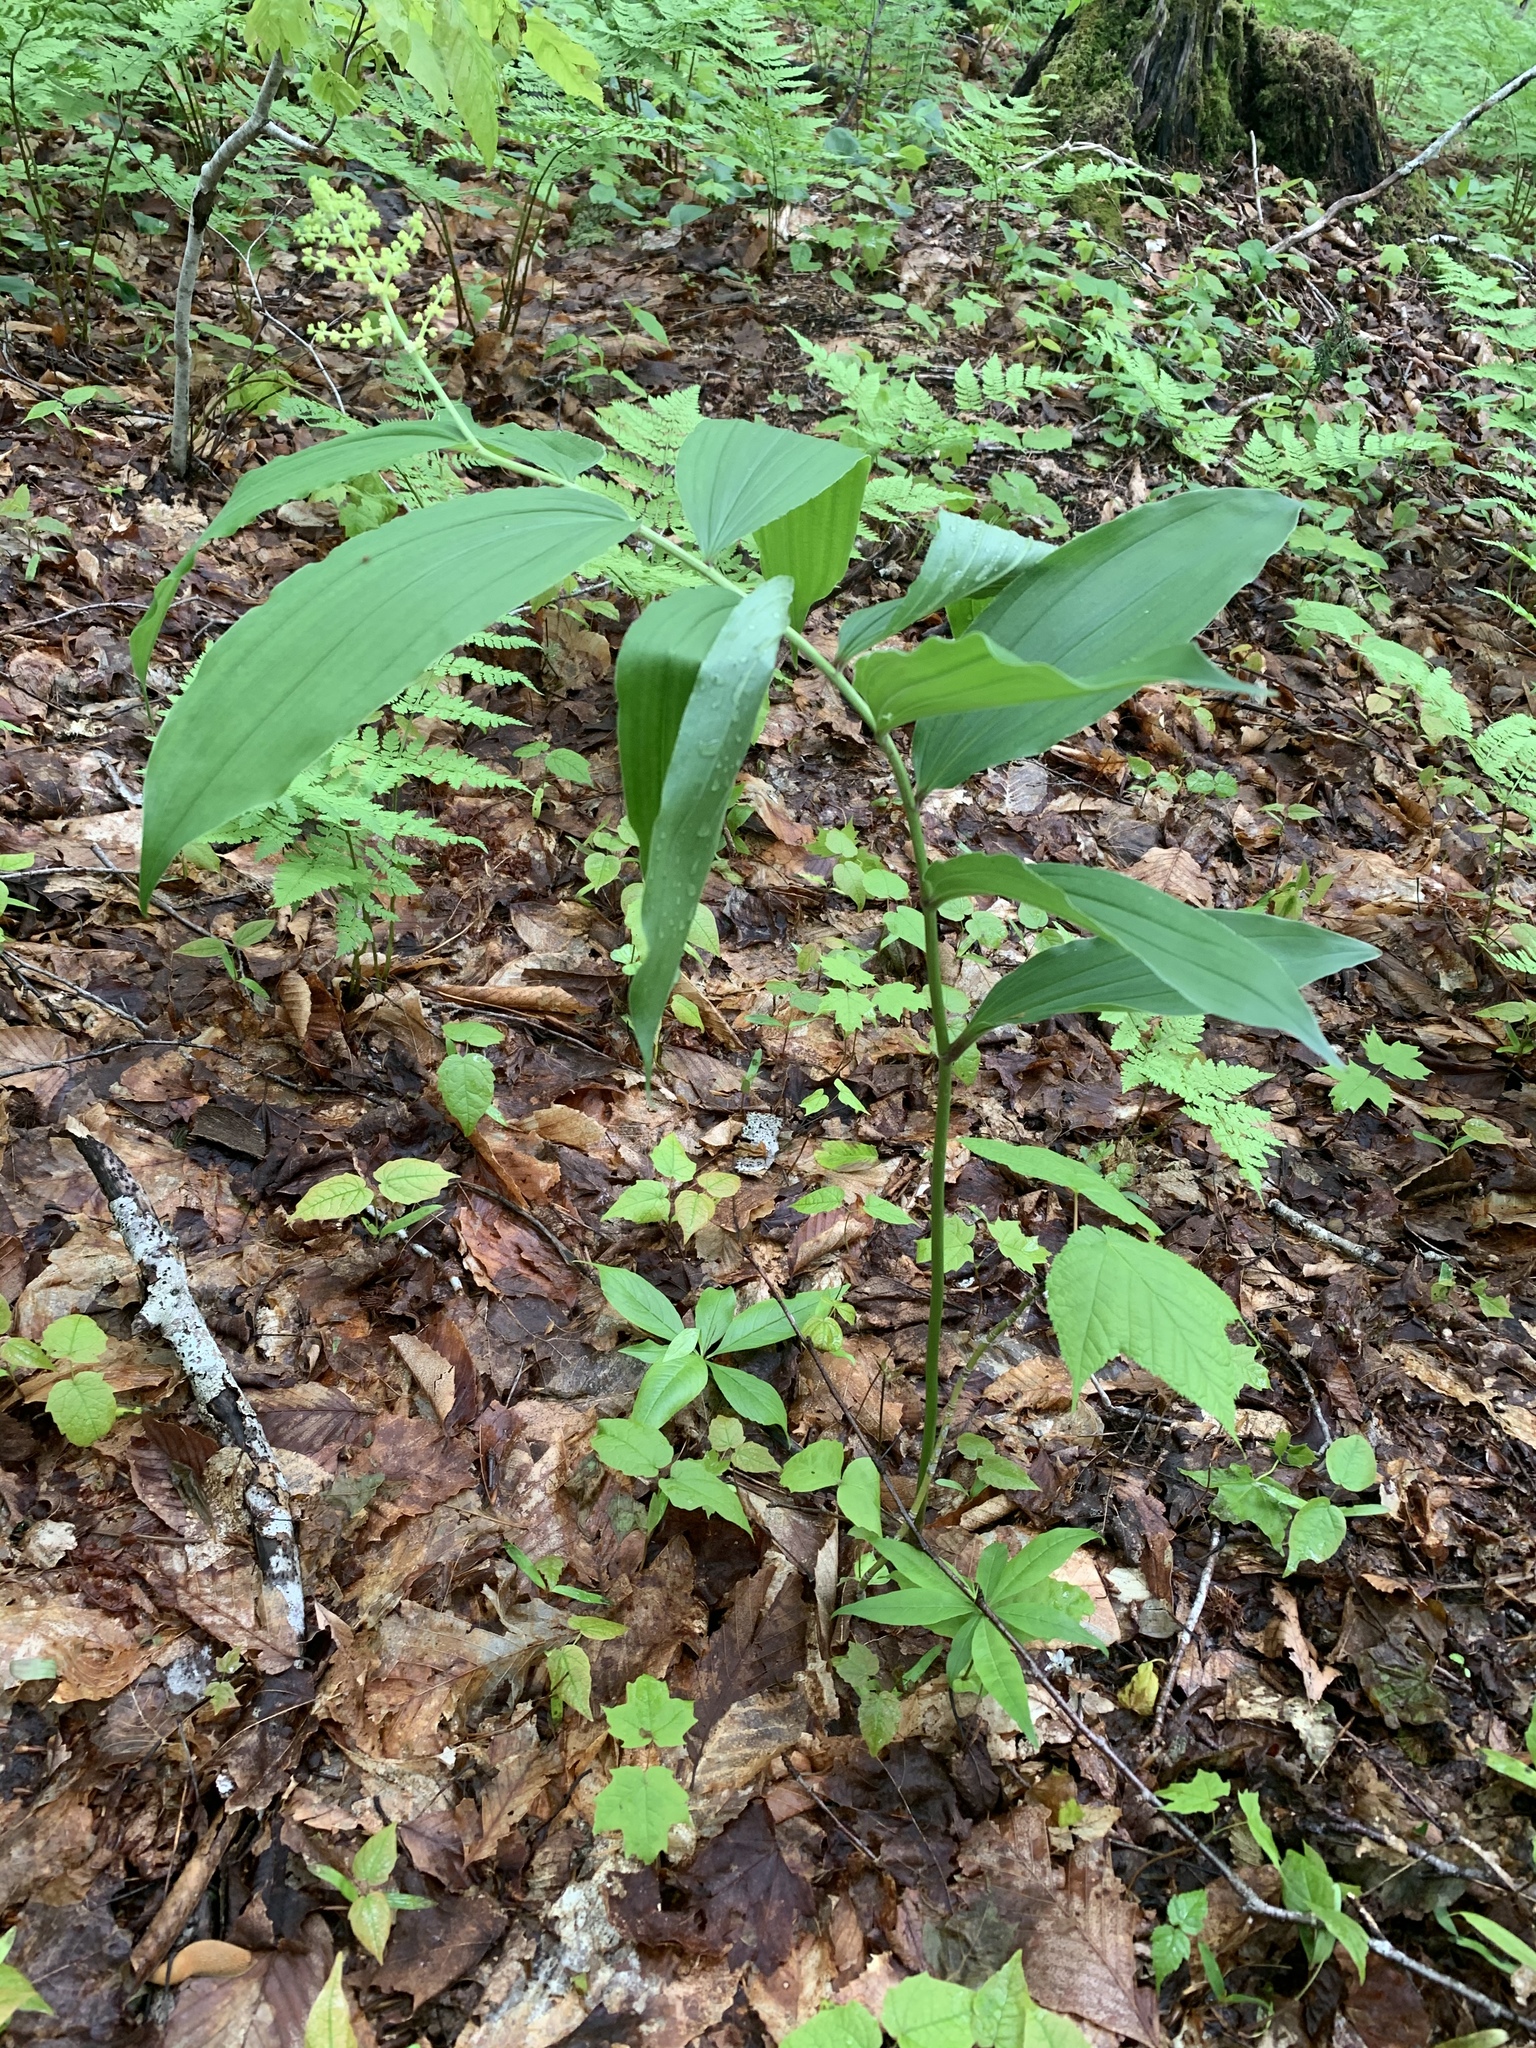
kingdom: Plantae
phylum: Tracheophyta
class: Liliopsida
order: Asparagales
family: Asparagaceae
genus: Maianthemum
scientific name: Maianthemum racemosum
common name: False spikenard
